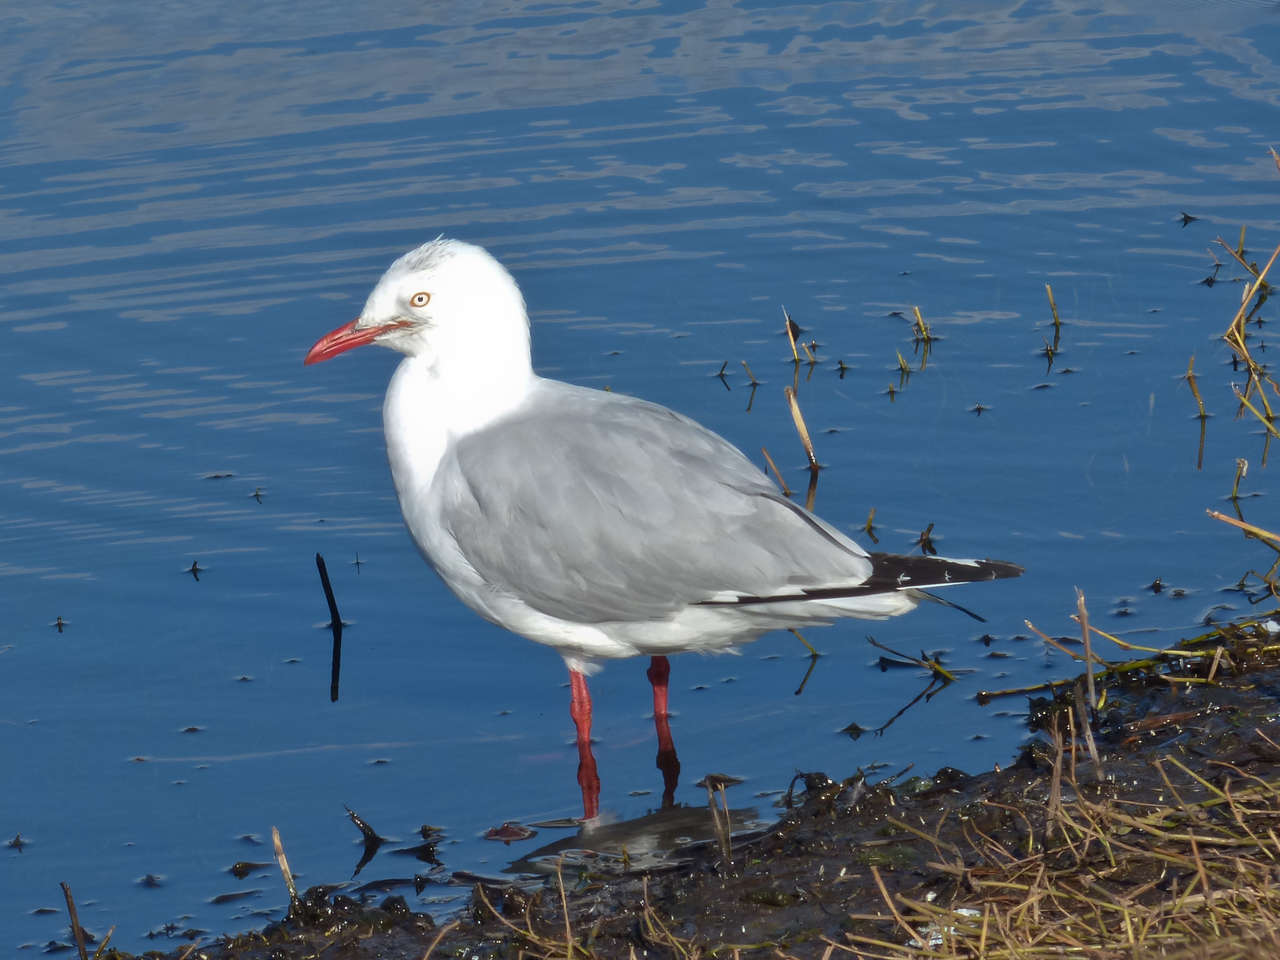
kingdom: Animalia
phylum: Chordata
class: Aves
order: Charadriiformes
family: Laridae
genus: Chroicocephalus
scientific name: Chroicocephalus novaehollandiae
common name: Silver gull
